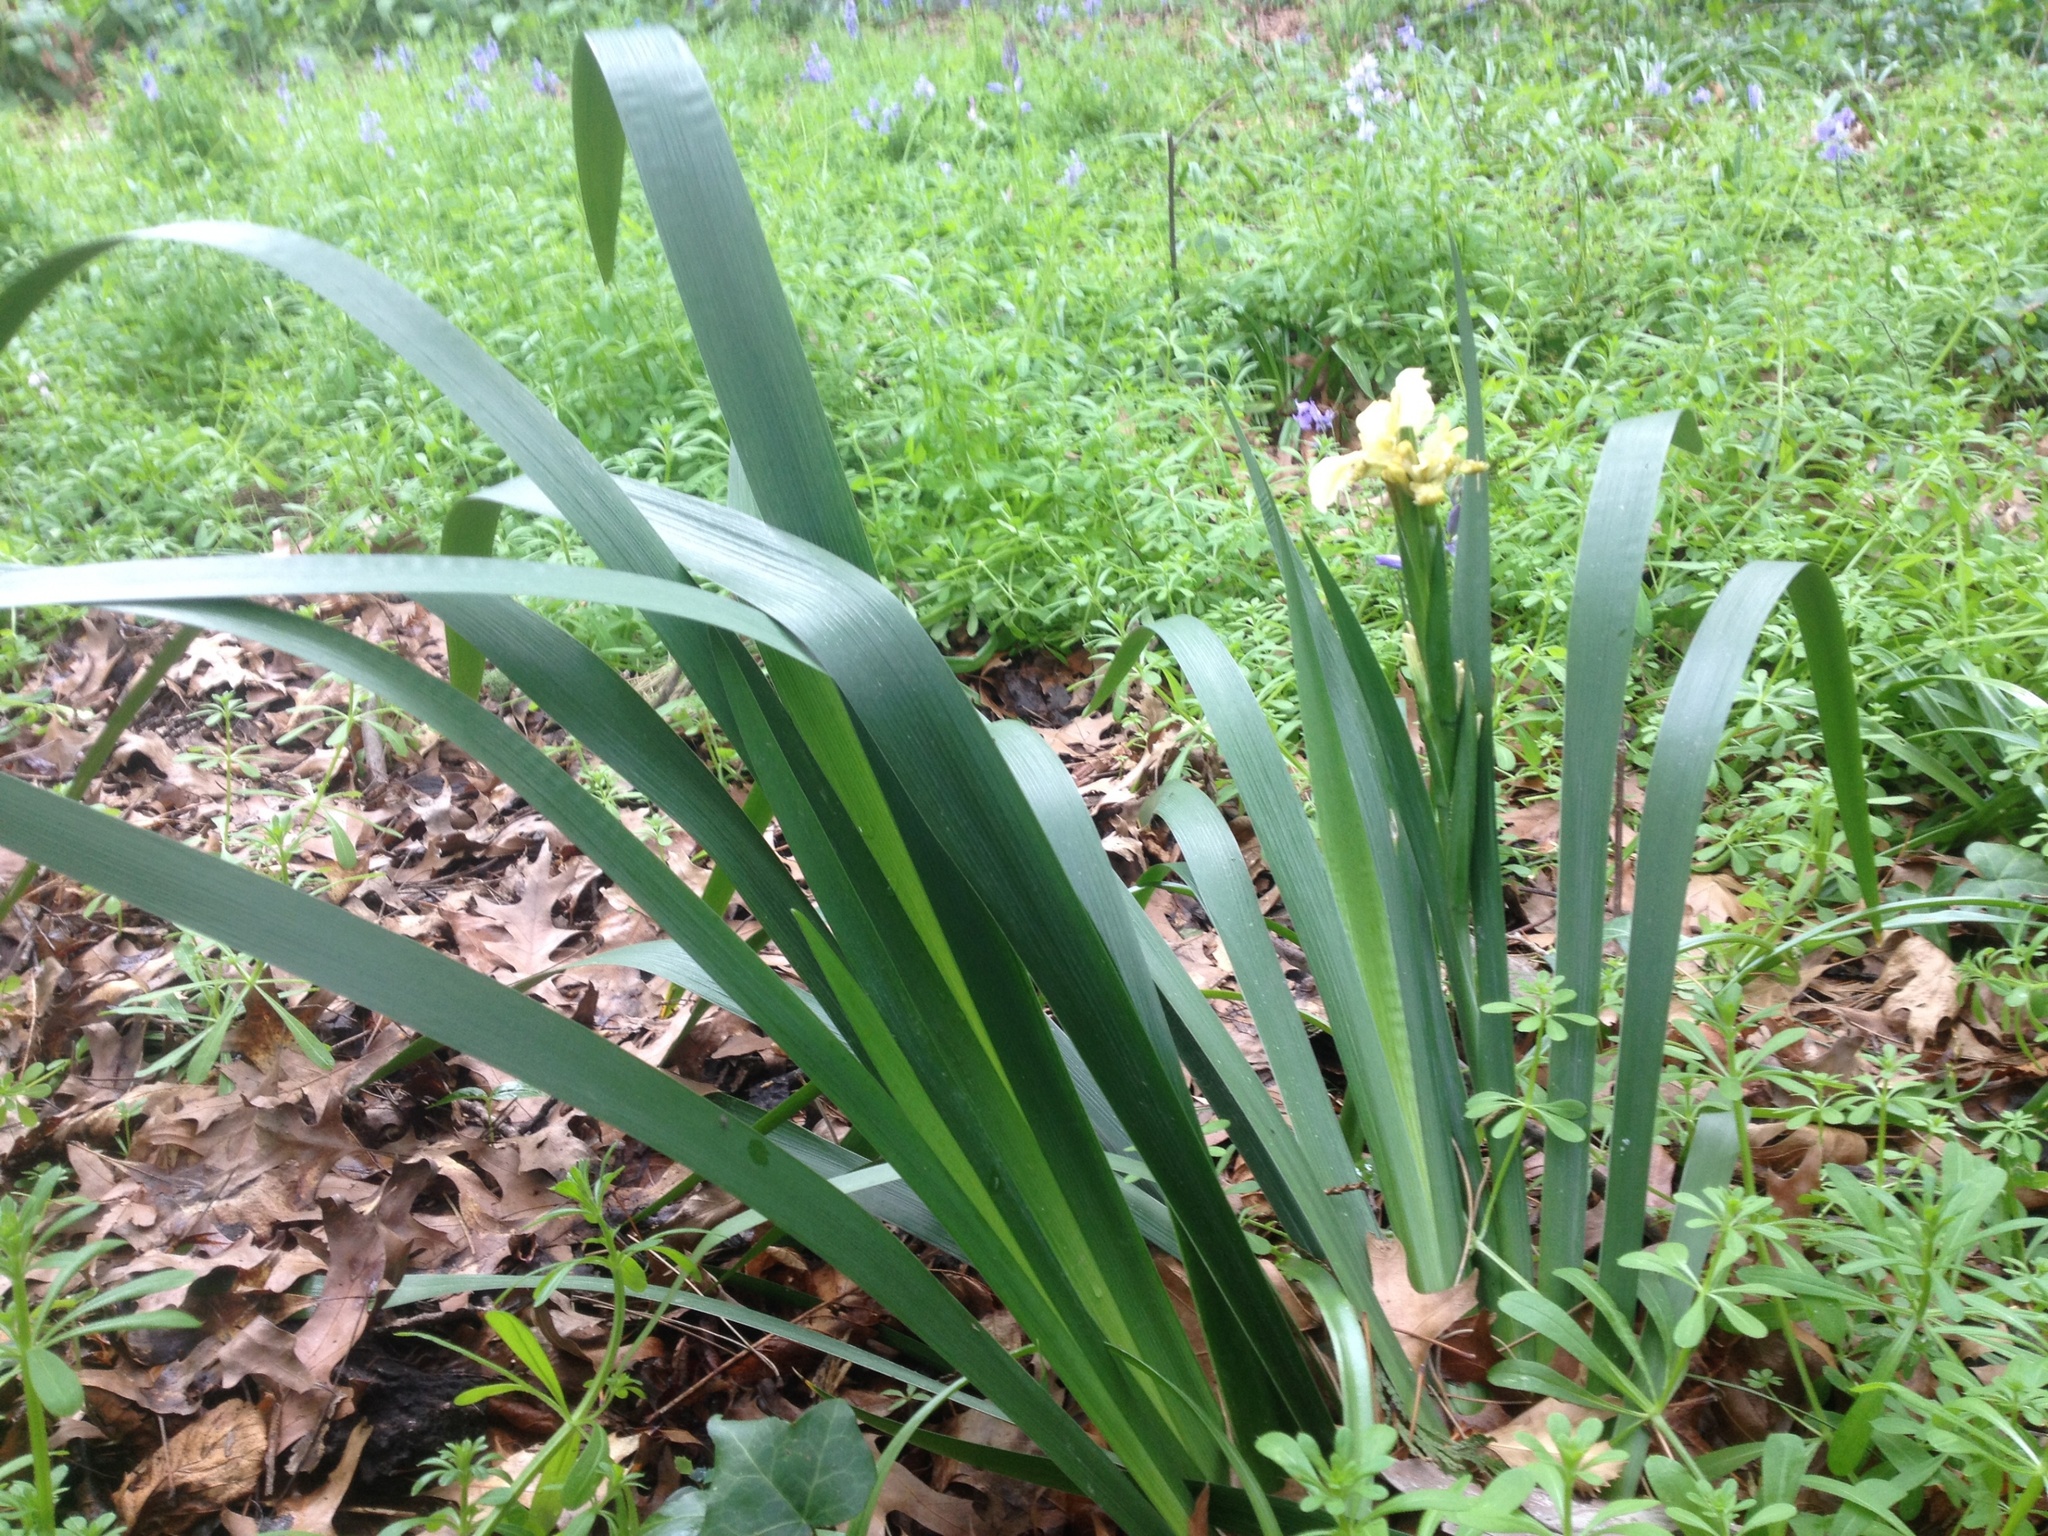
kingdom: Plantae
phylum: Tracheophyta
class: Liliopsida
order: Asparagales
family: Iridaceae
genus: Iris
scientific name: Iris foetidissima
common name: Stinking iris
